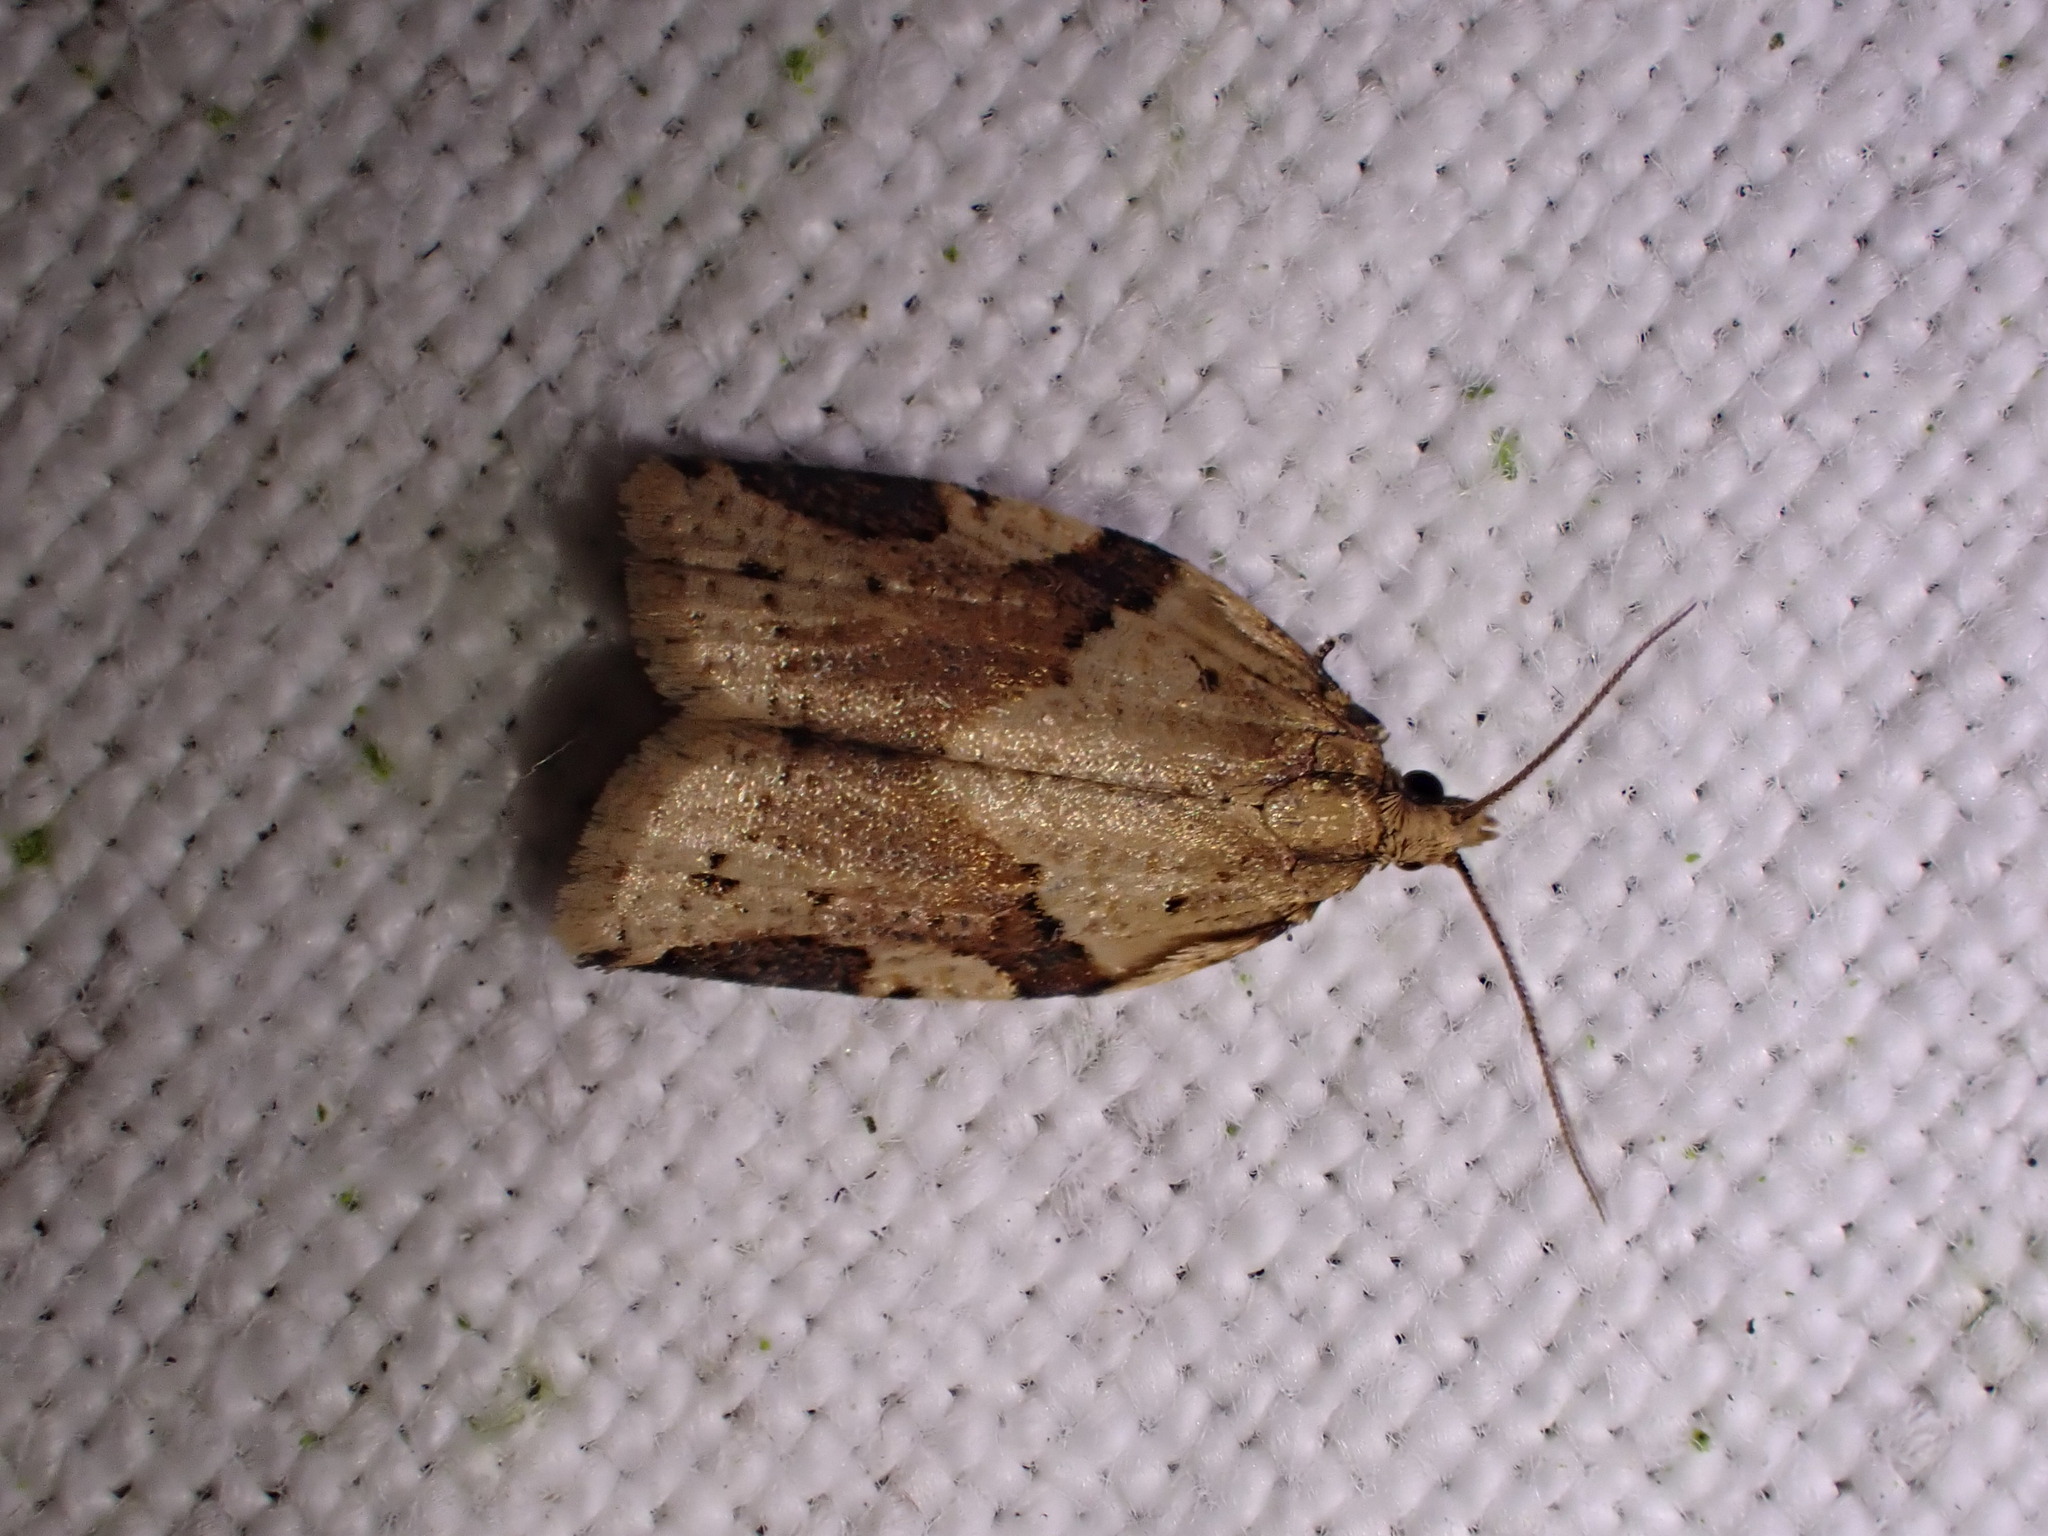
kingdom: Animalia
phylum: Arthropoda
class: Insecta
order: Lepidoptera
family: Tortricidae
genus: Clepsis
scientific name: Clepsis spectrana
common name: Cyclamen tortrix
